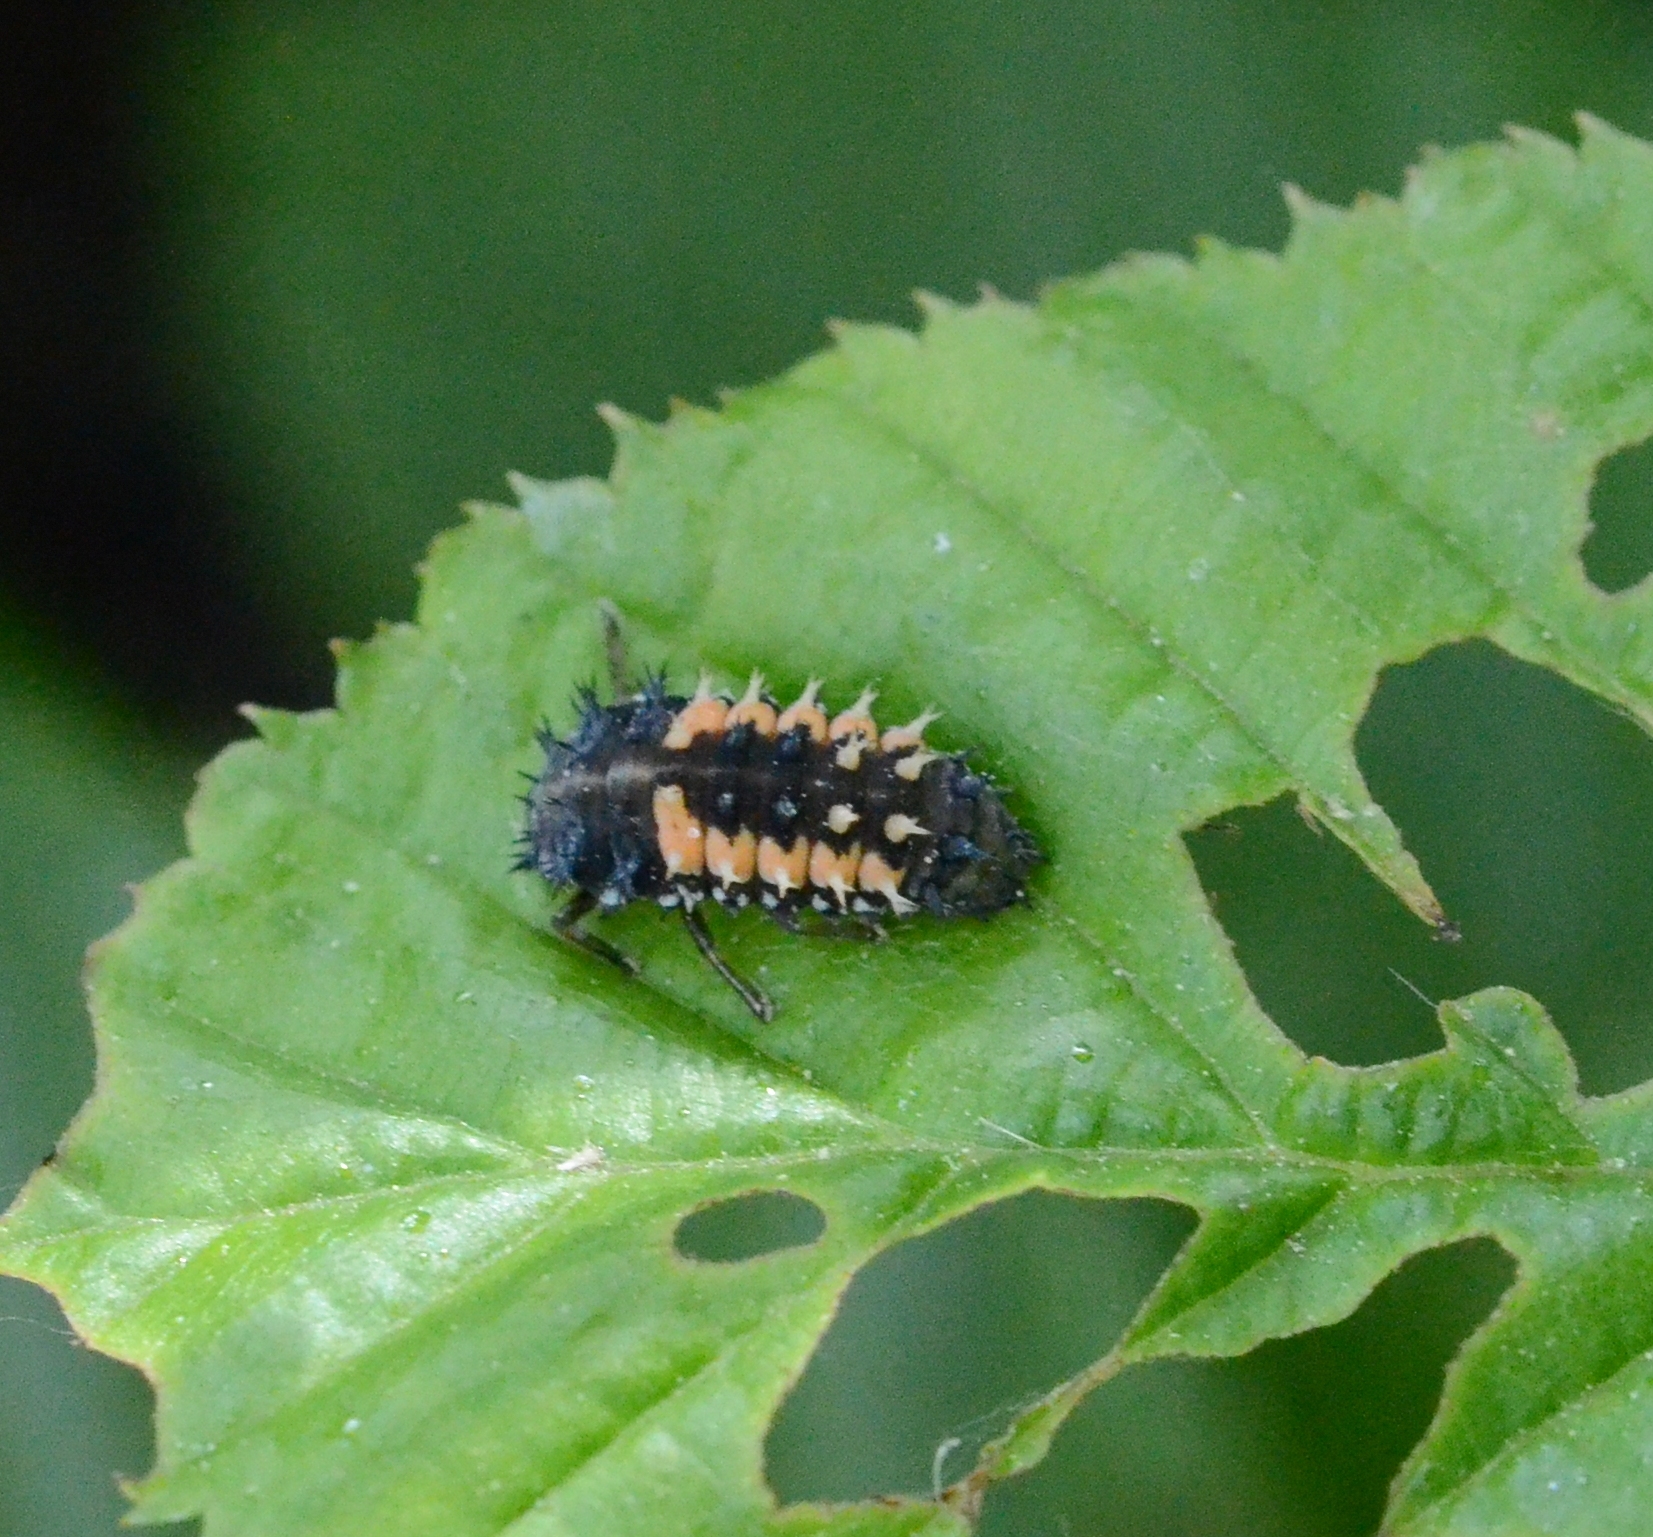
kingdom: Animalia
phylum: Arthropoda
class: Insecta
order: Coleoptera
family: Coccinellidae
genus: Harmonia
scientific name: Harmonia axyridis
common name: Harlequin ladybird
